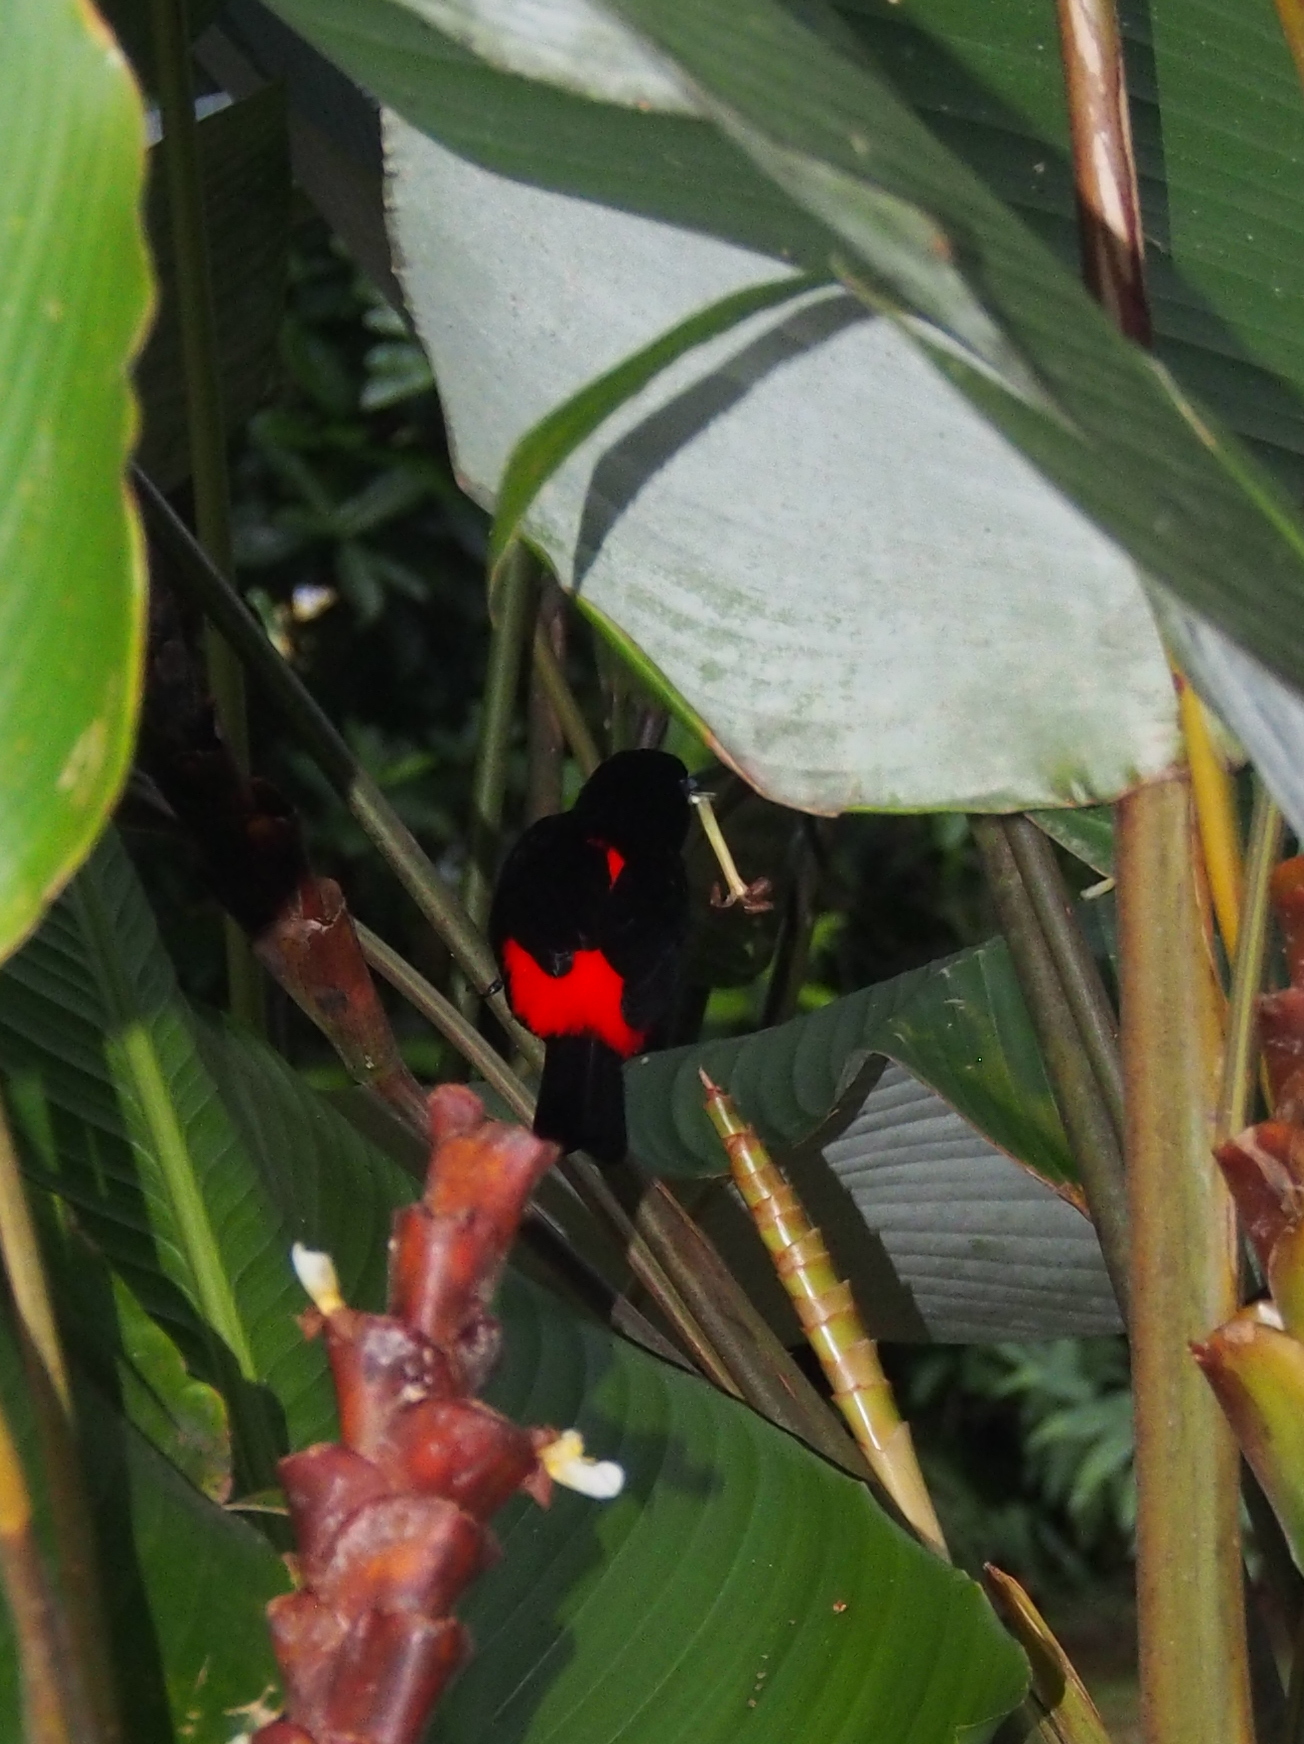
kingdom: Animalia
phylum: Chordata
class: Aves
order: Passeriformes
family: Thraupidae
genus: Ramphocelus
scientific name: Ramphocelus passerinii
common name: Passerini's tanager
